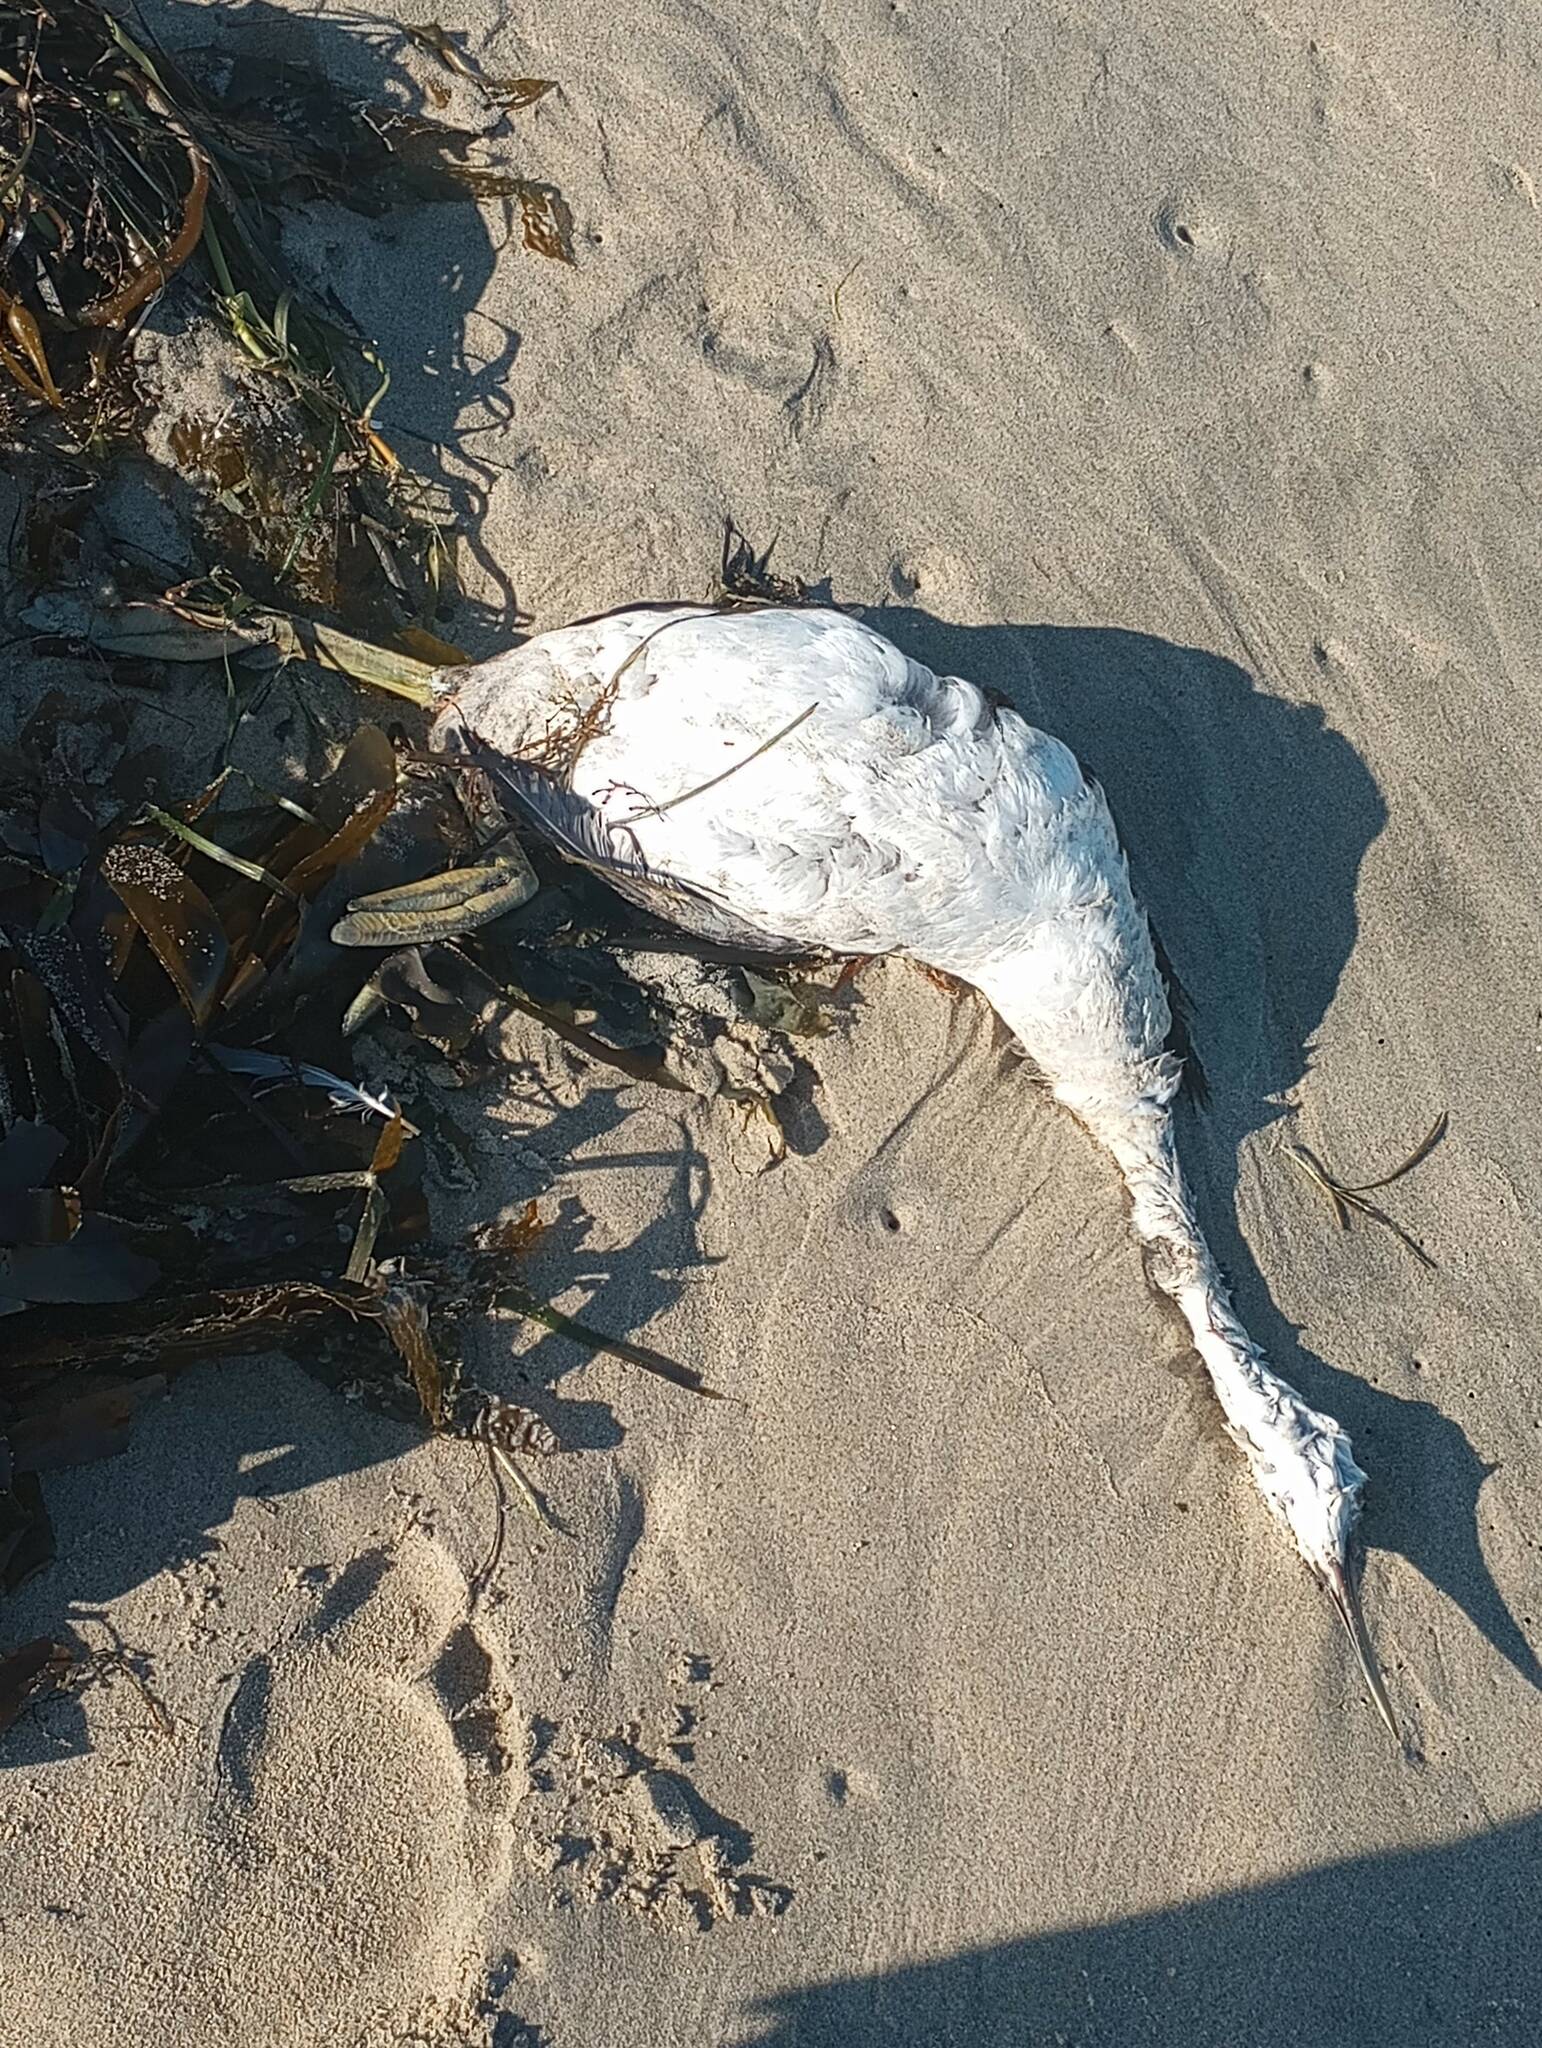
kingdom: Animalia
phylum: Chordata
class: Aves
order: Podicipediformes
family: Podicipedidae
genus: Aechmophorus
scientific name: Aechmophorus occidentalis
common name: Western grebe
